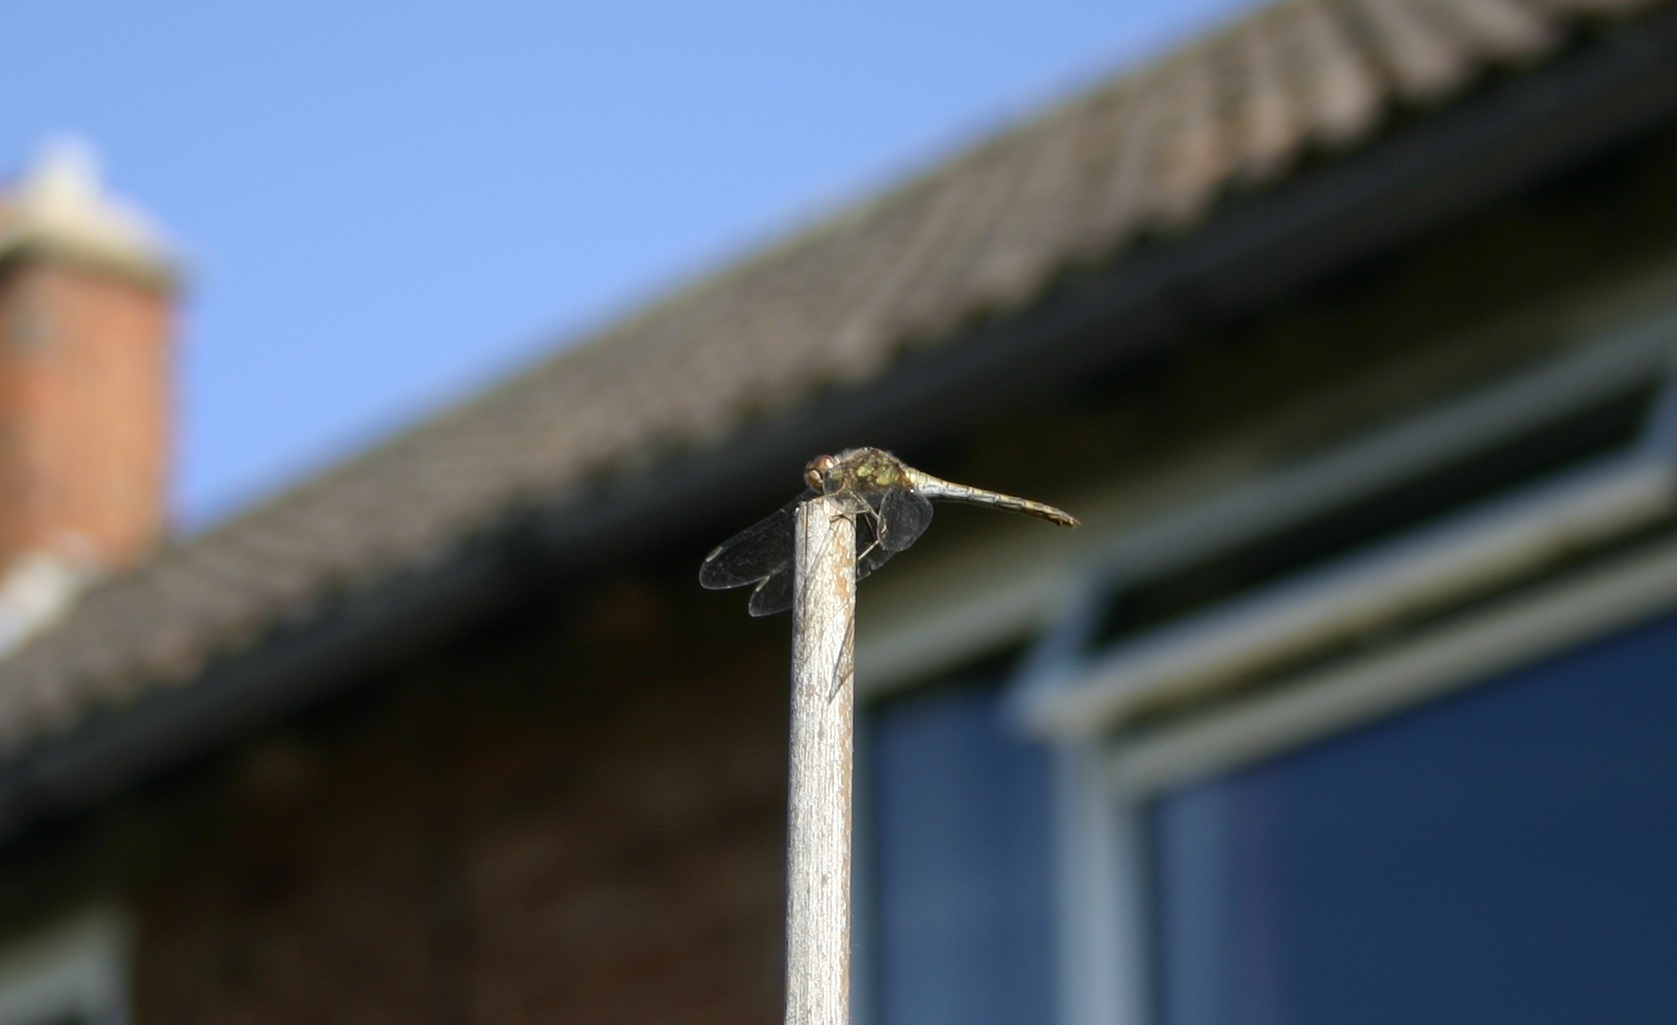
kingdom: Animalia
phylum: Arthropoda
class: Insecta
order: Odonata
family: Libellulidae
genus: Sympetrum
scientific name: Sympetrum striolatum
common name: Common darter
